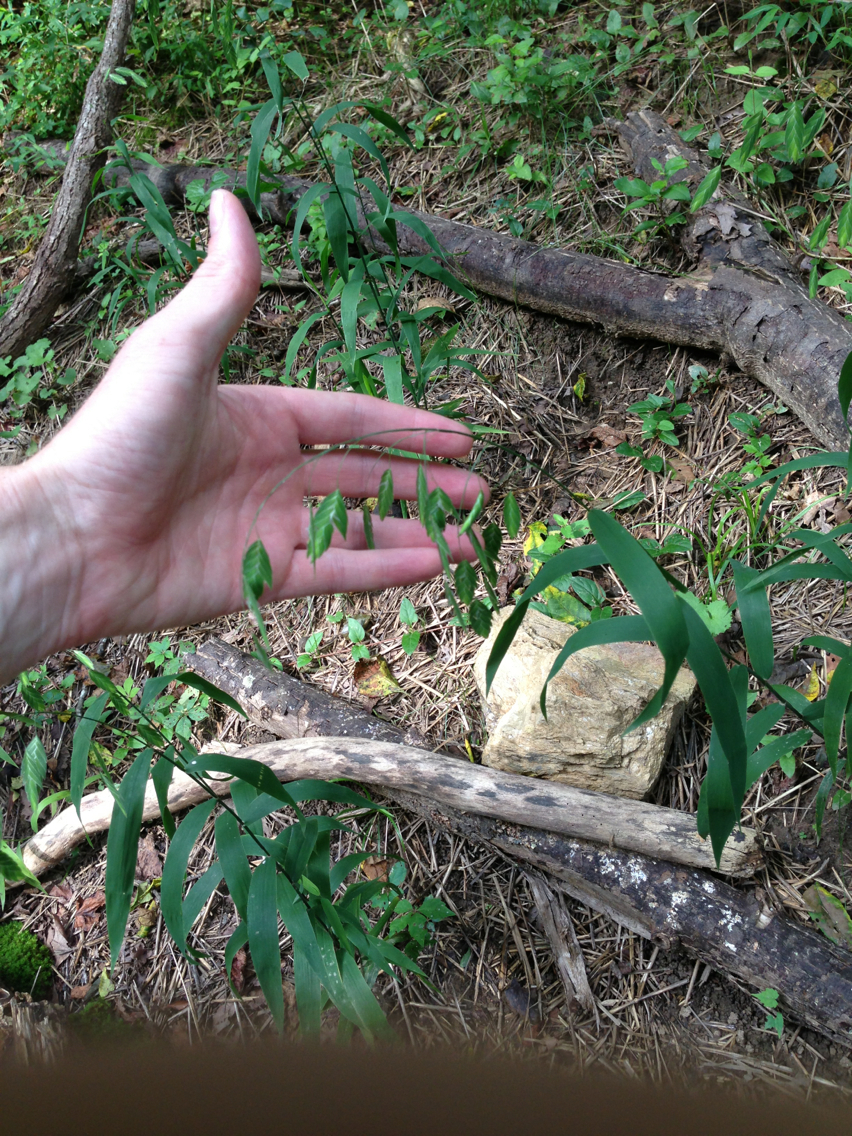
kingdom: Plantae
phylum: Tracheophyta
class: Liliopsida
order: Poales
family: Poaceae
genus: Chasmanthium
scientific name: Chasmanthium latifolium
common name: Broad-leaved chasmanthium
